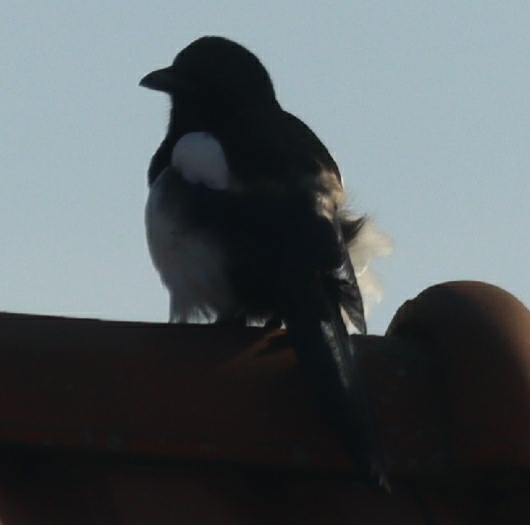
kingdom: Animalia
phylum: Chordata
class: Aves
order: Passeriformes
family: Corvidae
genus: Pica
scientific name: Pica pica
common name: Eurasian magpie
